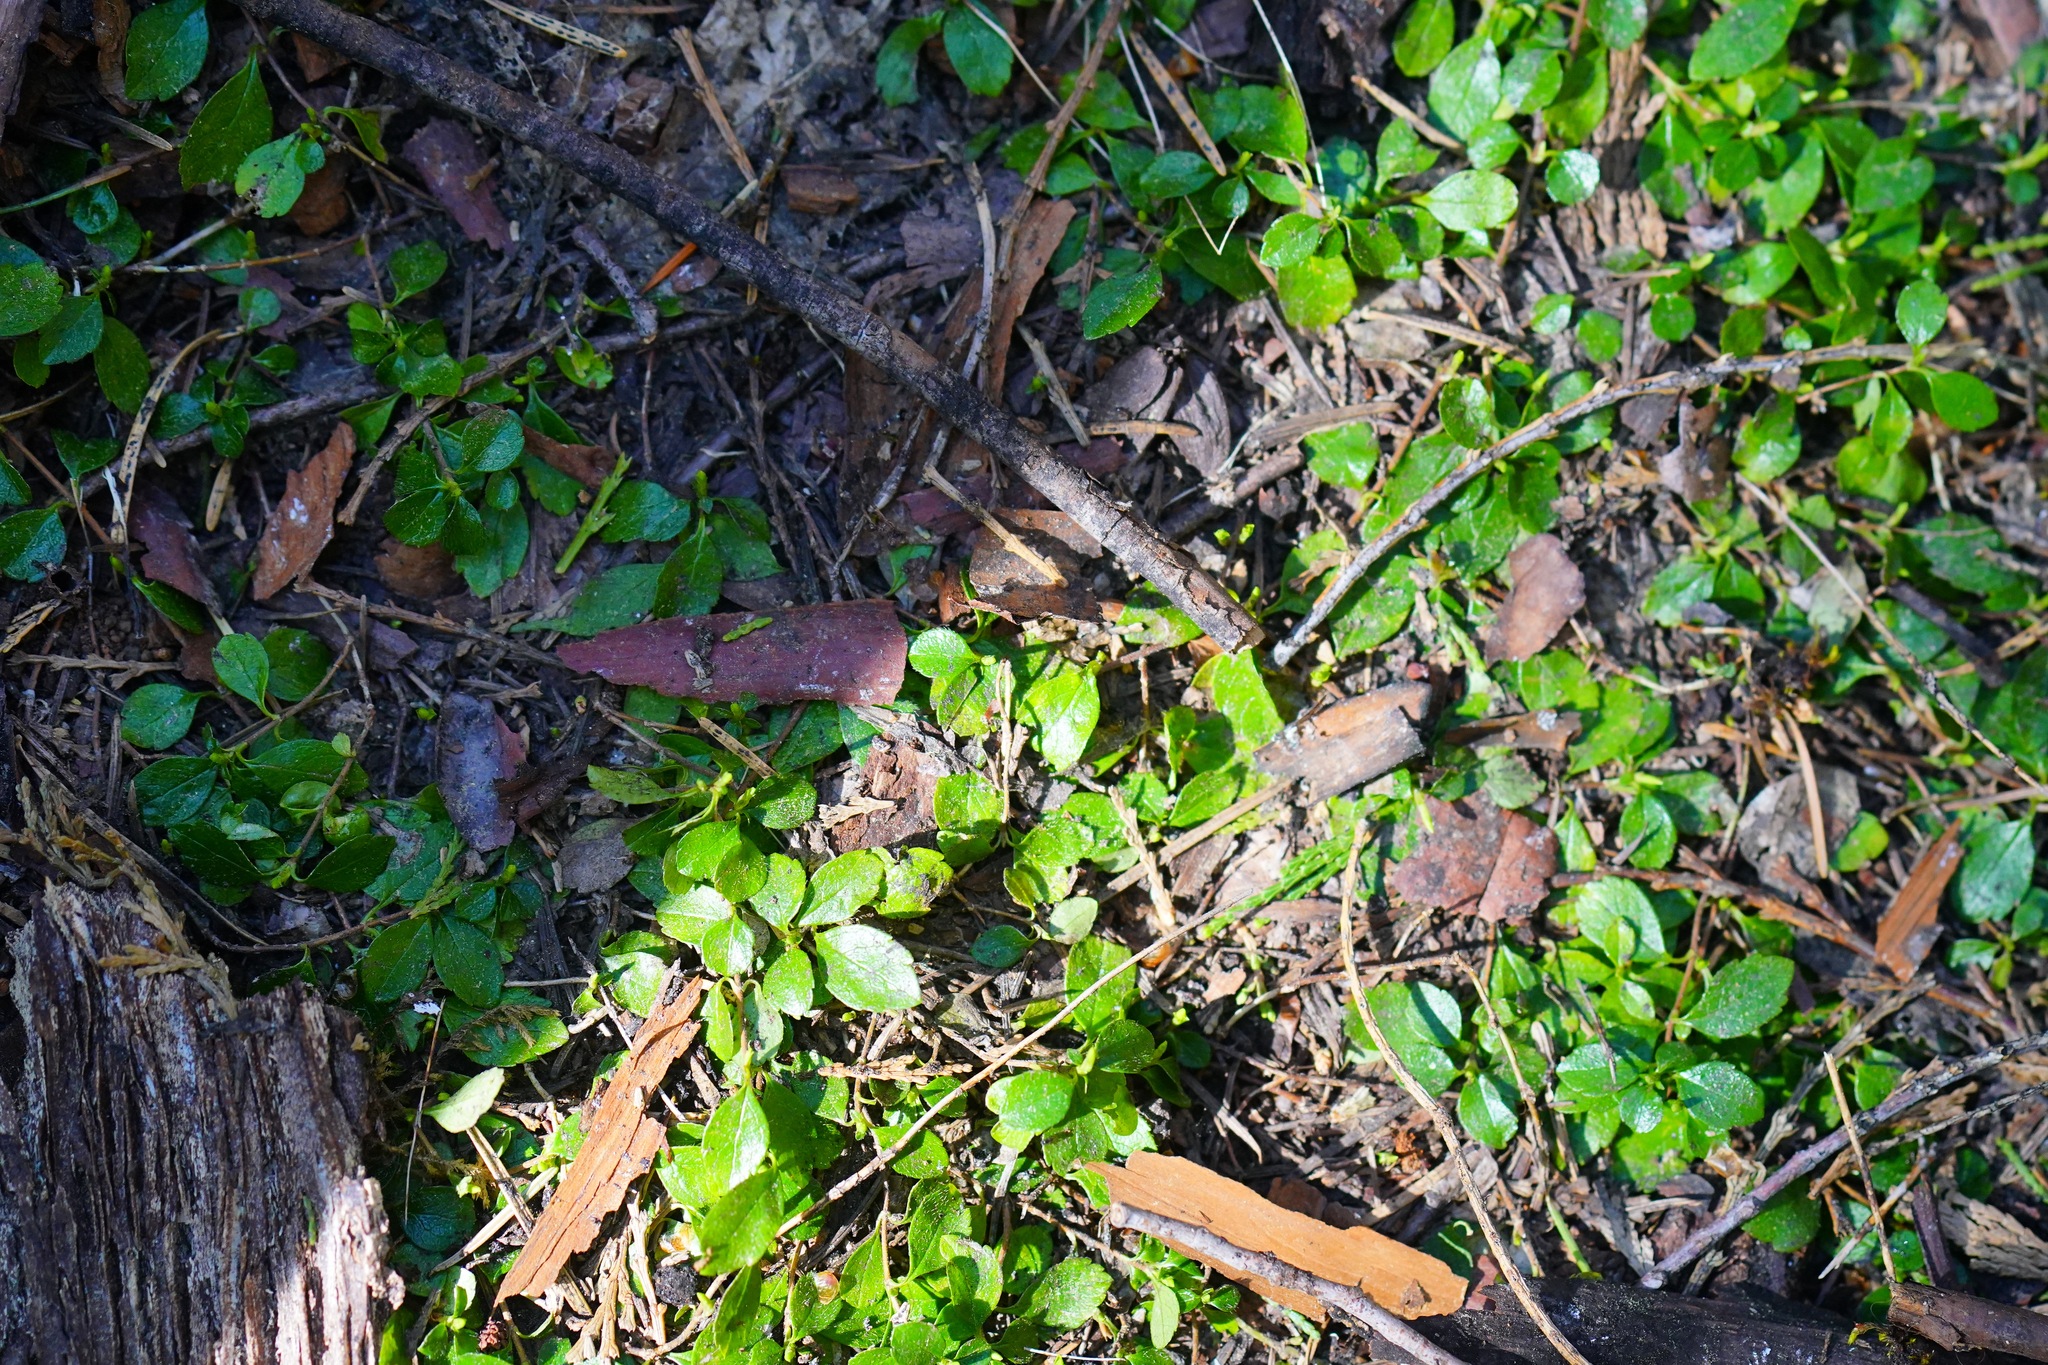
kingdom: Plantae
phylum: Tracheophyta
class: Magnoliopsida
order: Dipsacales
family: Caprifoliaceae
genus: Linnaea
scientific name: Linnaea borealis
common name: Twinflower
